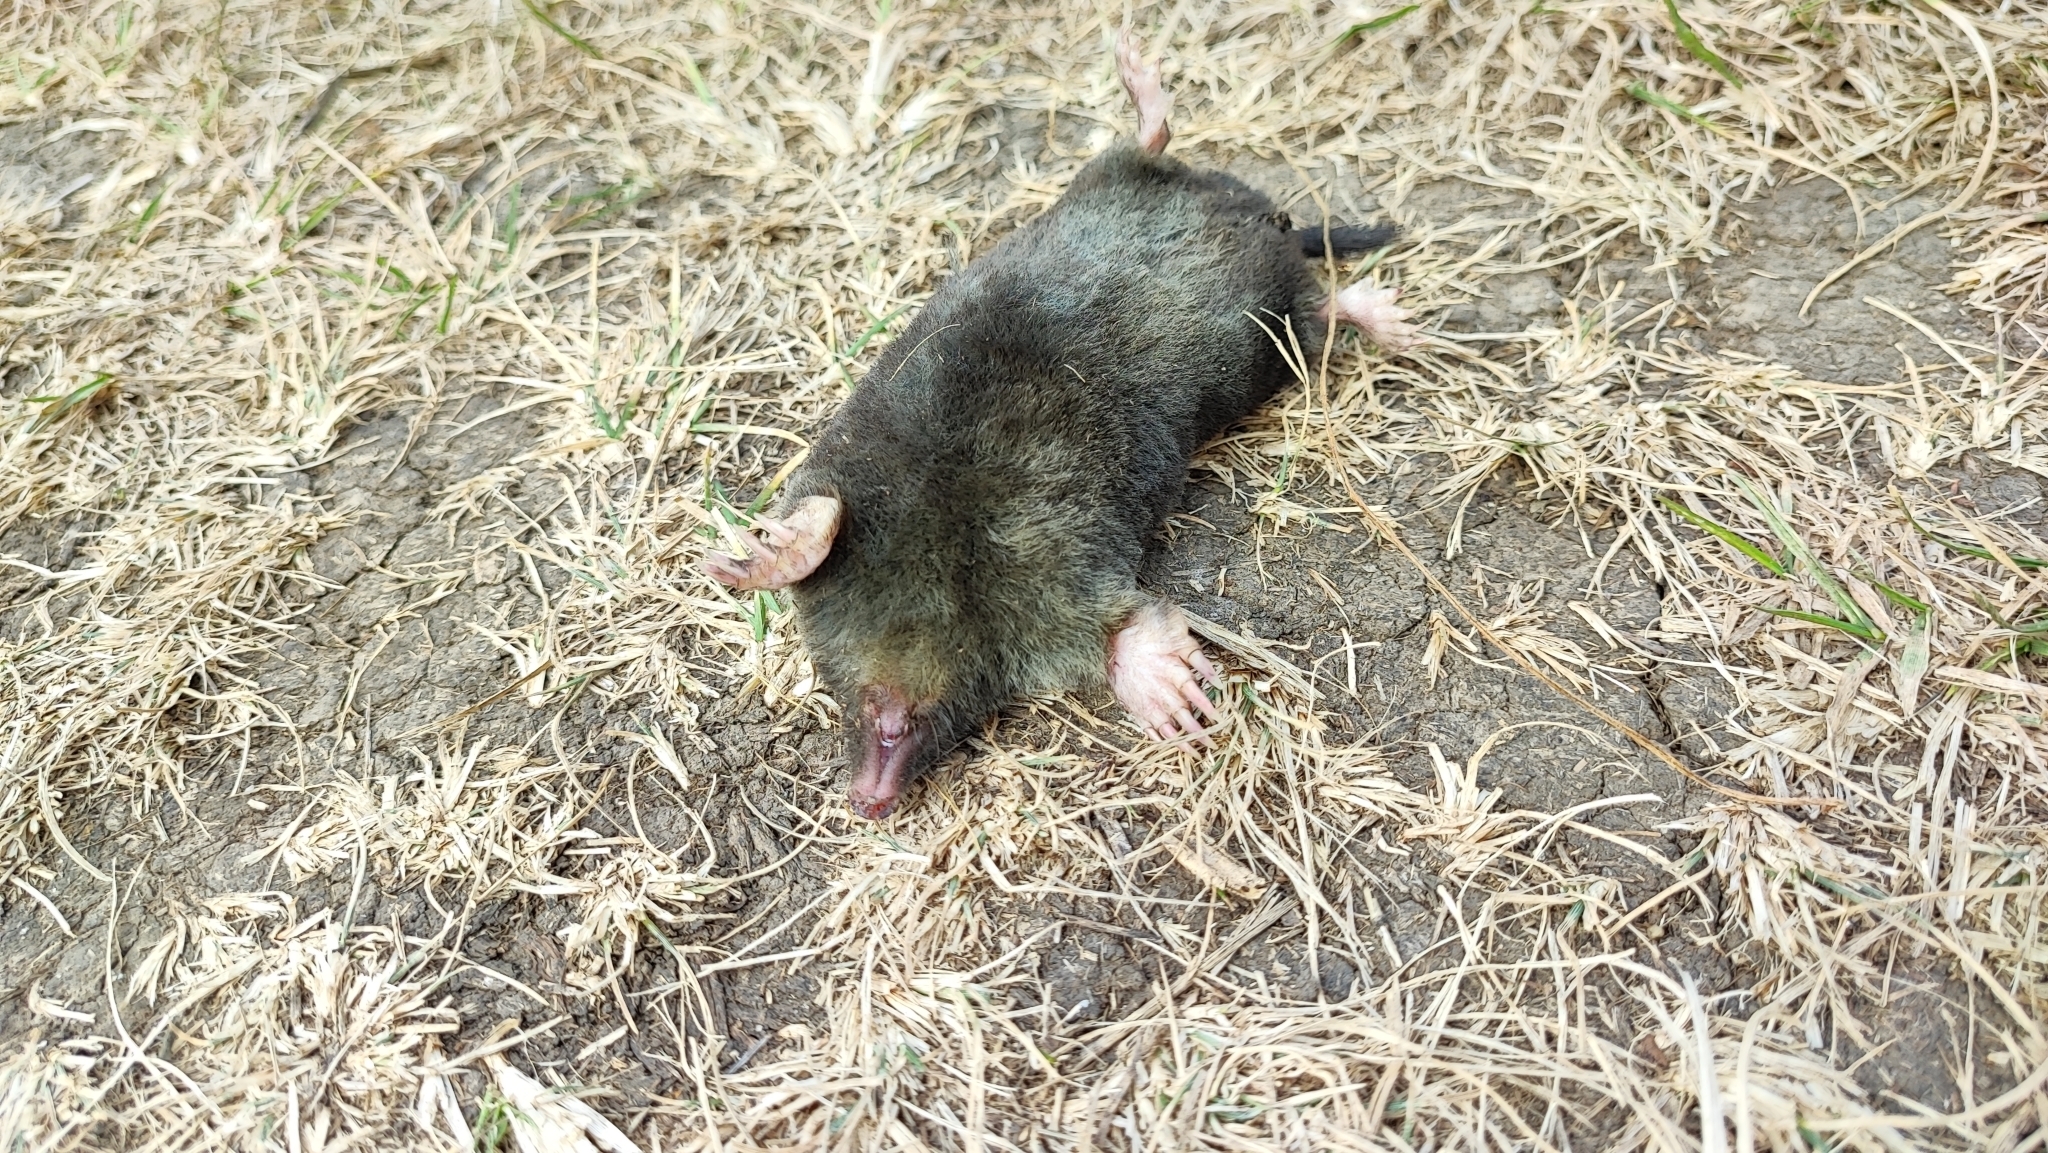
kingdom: Animalia
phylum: Chordata
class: Mammalia
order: Soricomorpha
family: Talpidae
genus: Talpa
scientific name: Talpa europaea
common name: European mole
